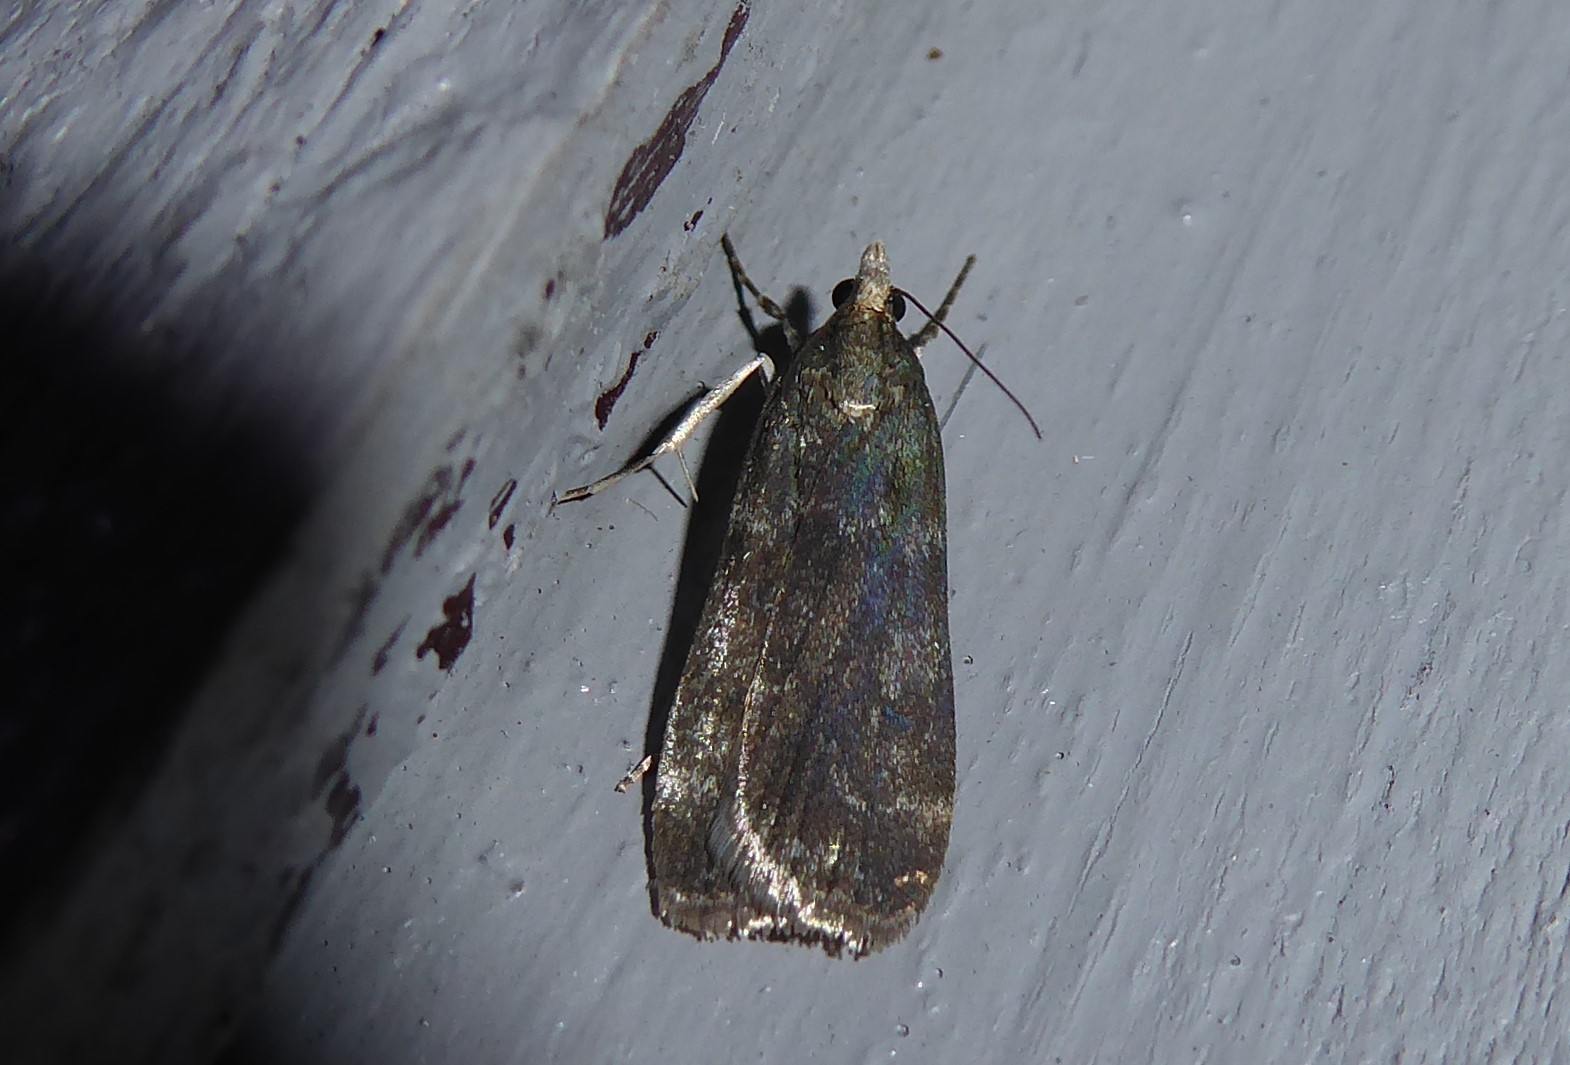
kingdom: Animalia
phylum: Arthropoda
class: Insecta
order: Lepidoptera
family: Crambidae
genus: Eudonia
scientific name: Eudonia cataxesta
